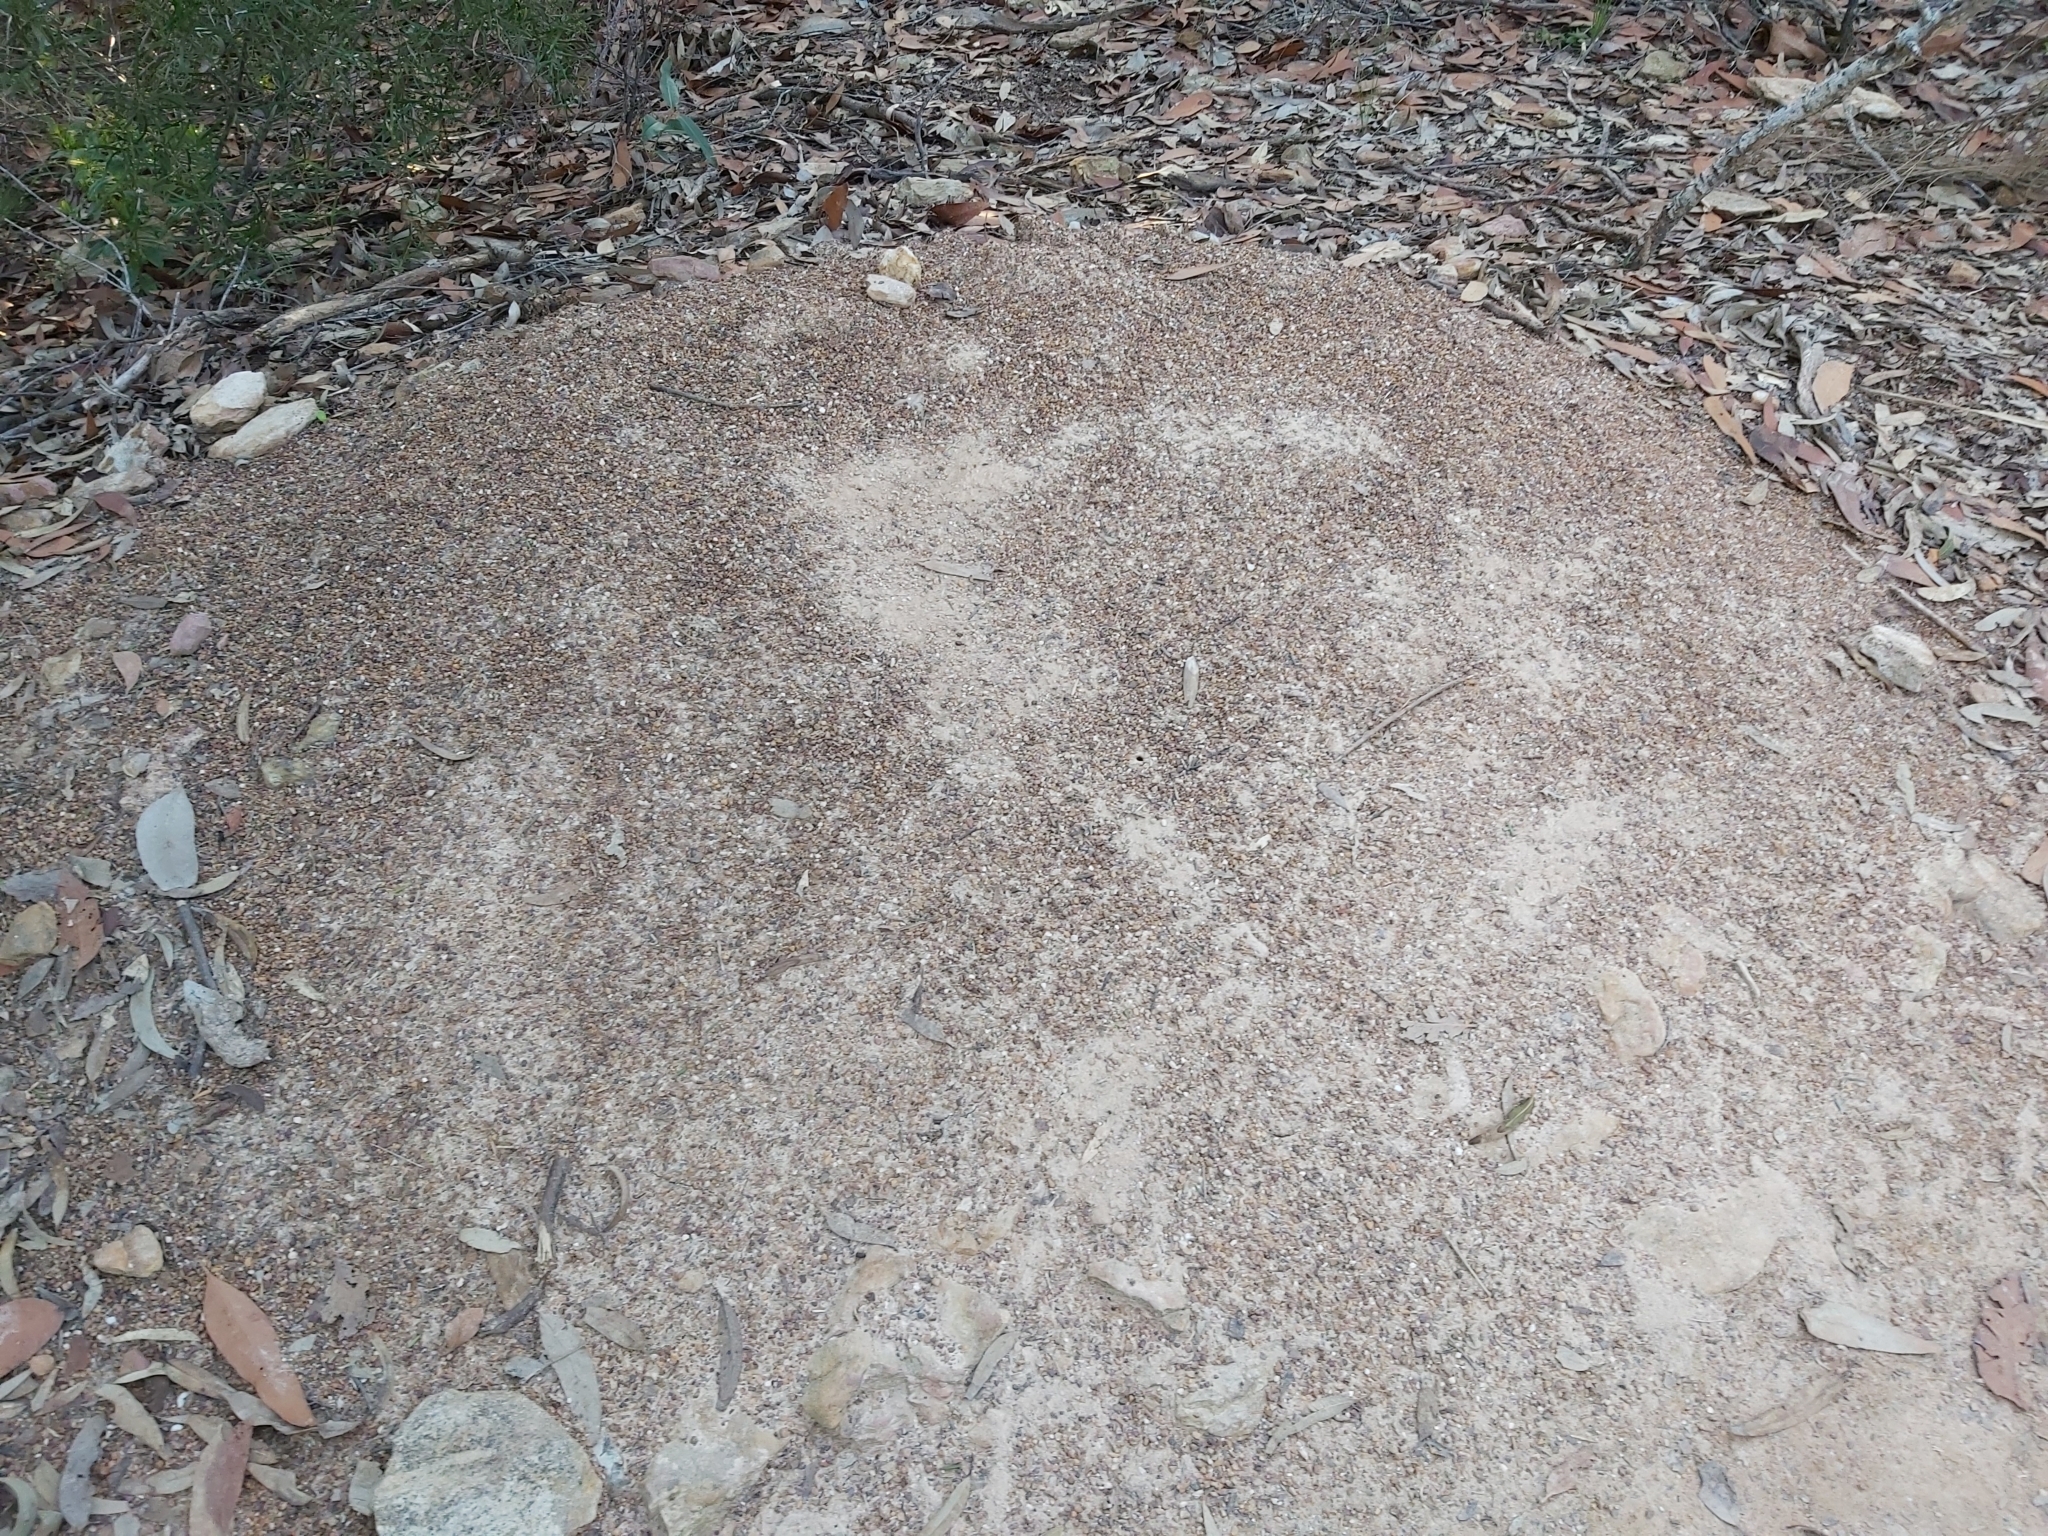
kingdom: Animalia
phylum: Arthropoda
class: Insecta
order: Hymenoptera
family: Formicidae
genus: Iridomyrmex
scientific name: Iridomyrmex purpureus
